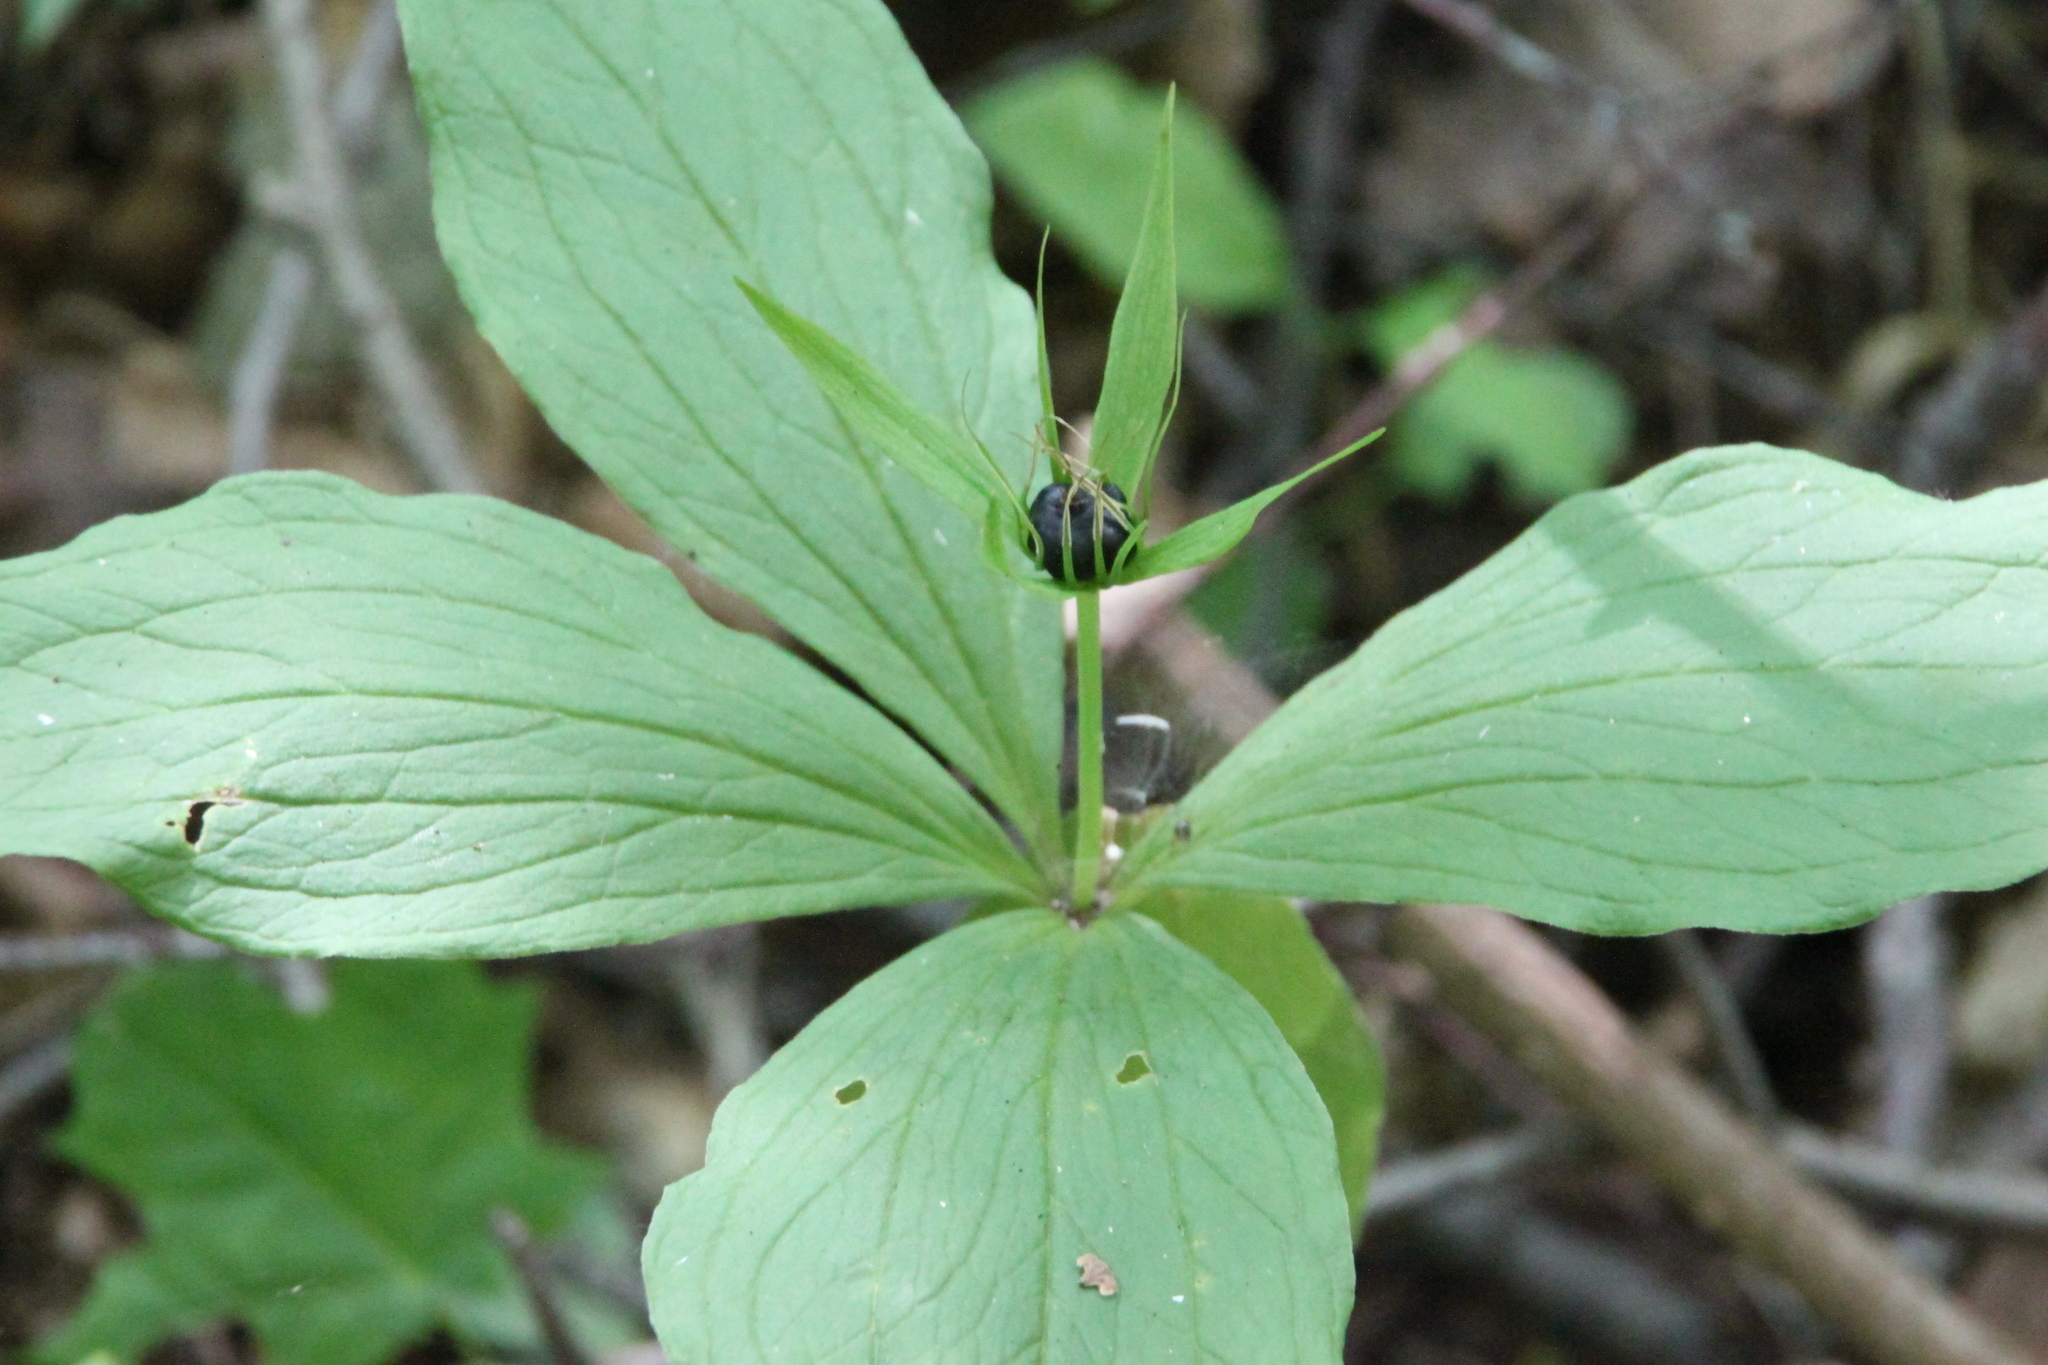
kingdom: Plantae
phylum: Tracheophyta
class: Liliopsida
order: Liliales
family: Melanthiaceae
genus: Paris
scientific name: Paris quadrifolia
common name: Herb-paris
